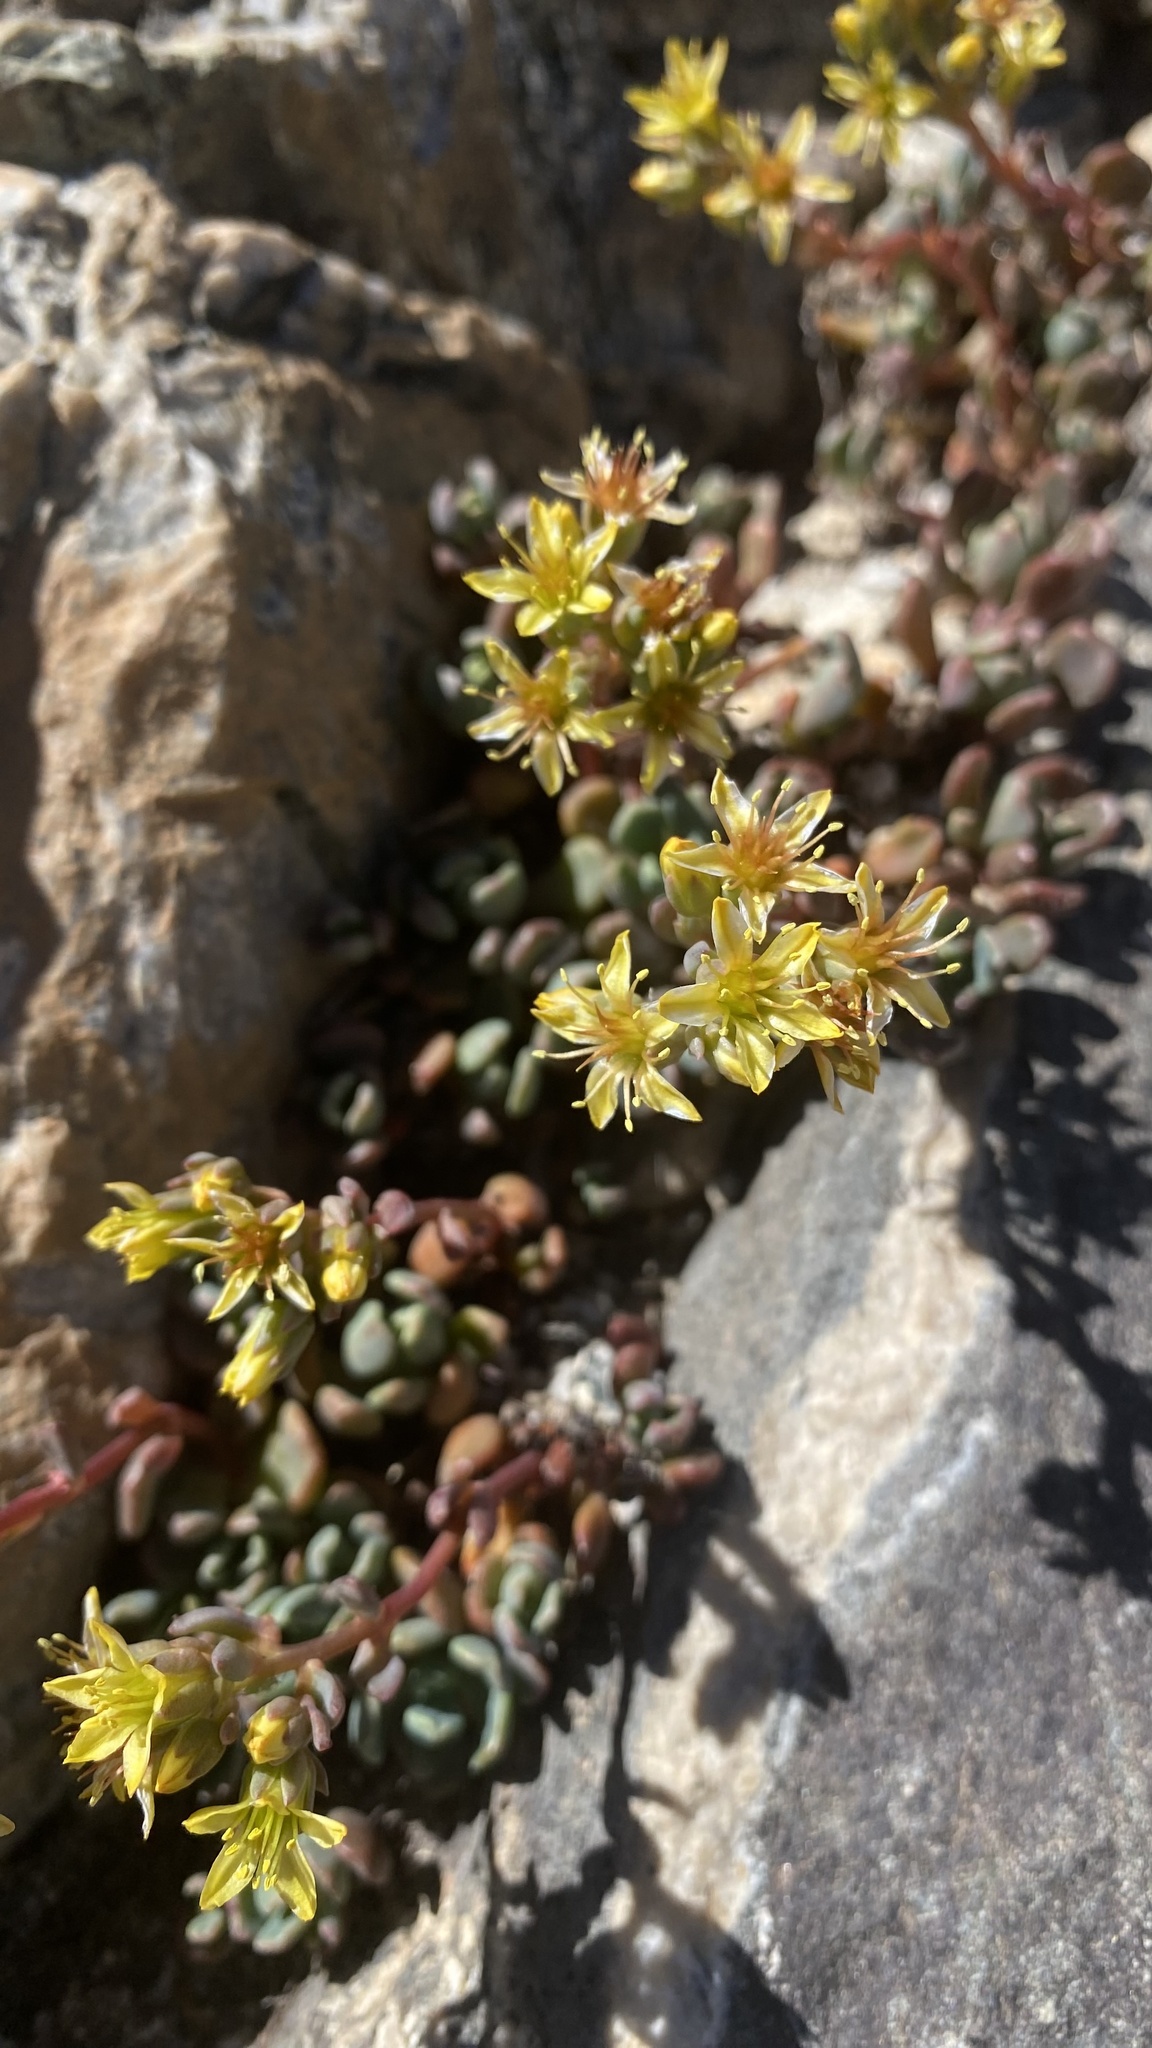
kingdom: Plantae
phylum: Tracheophyta
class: Magnoliopsida
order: Saxifragales
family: Crassulaceae
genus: Sedum
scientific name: Sedum obtusatum
